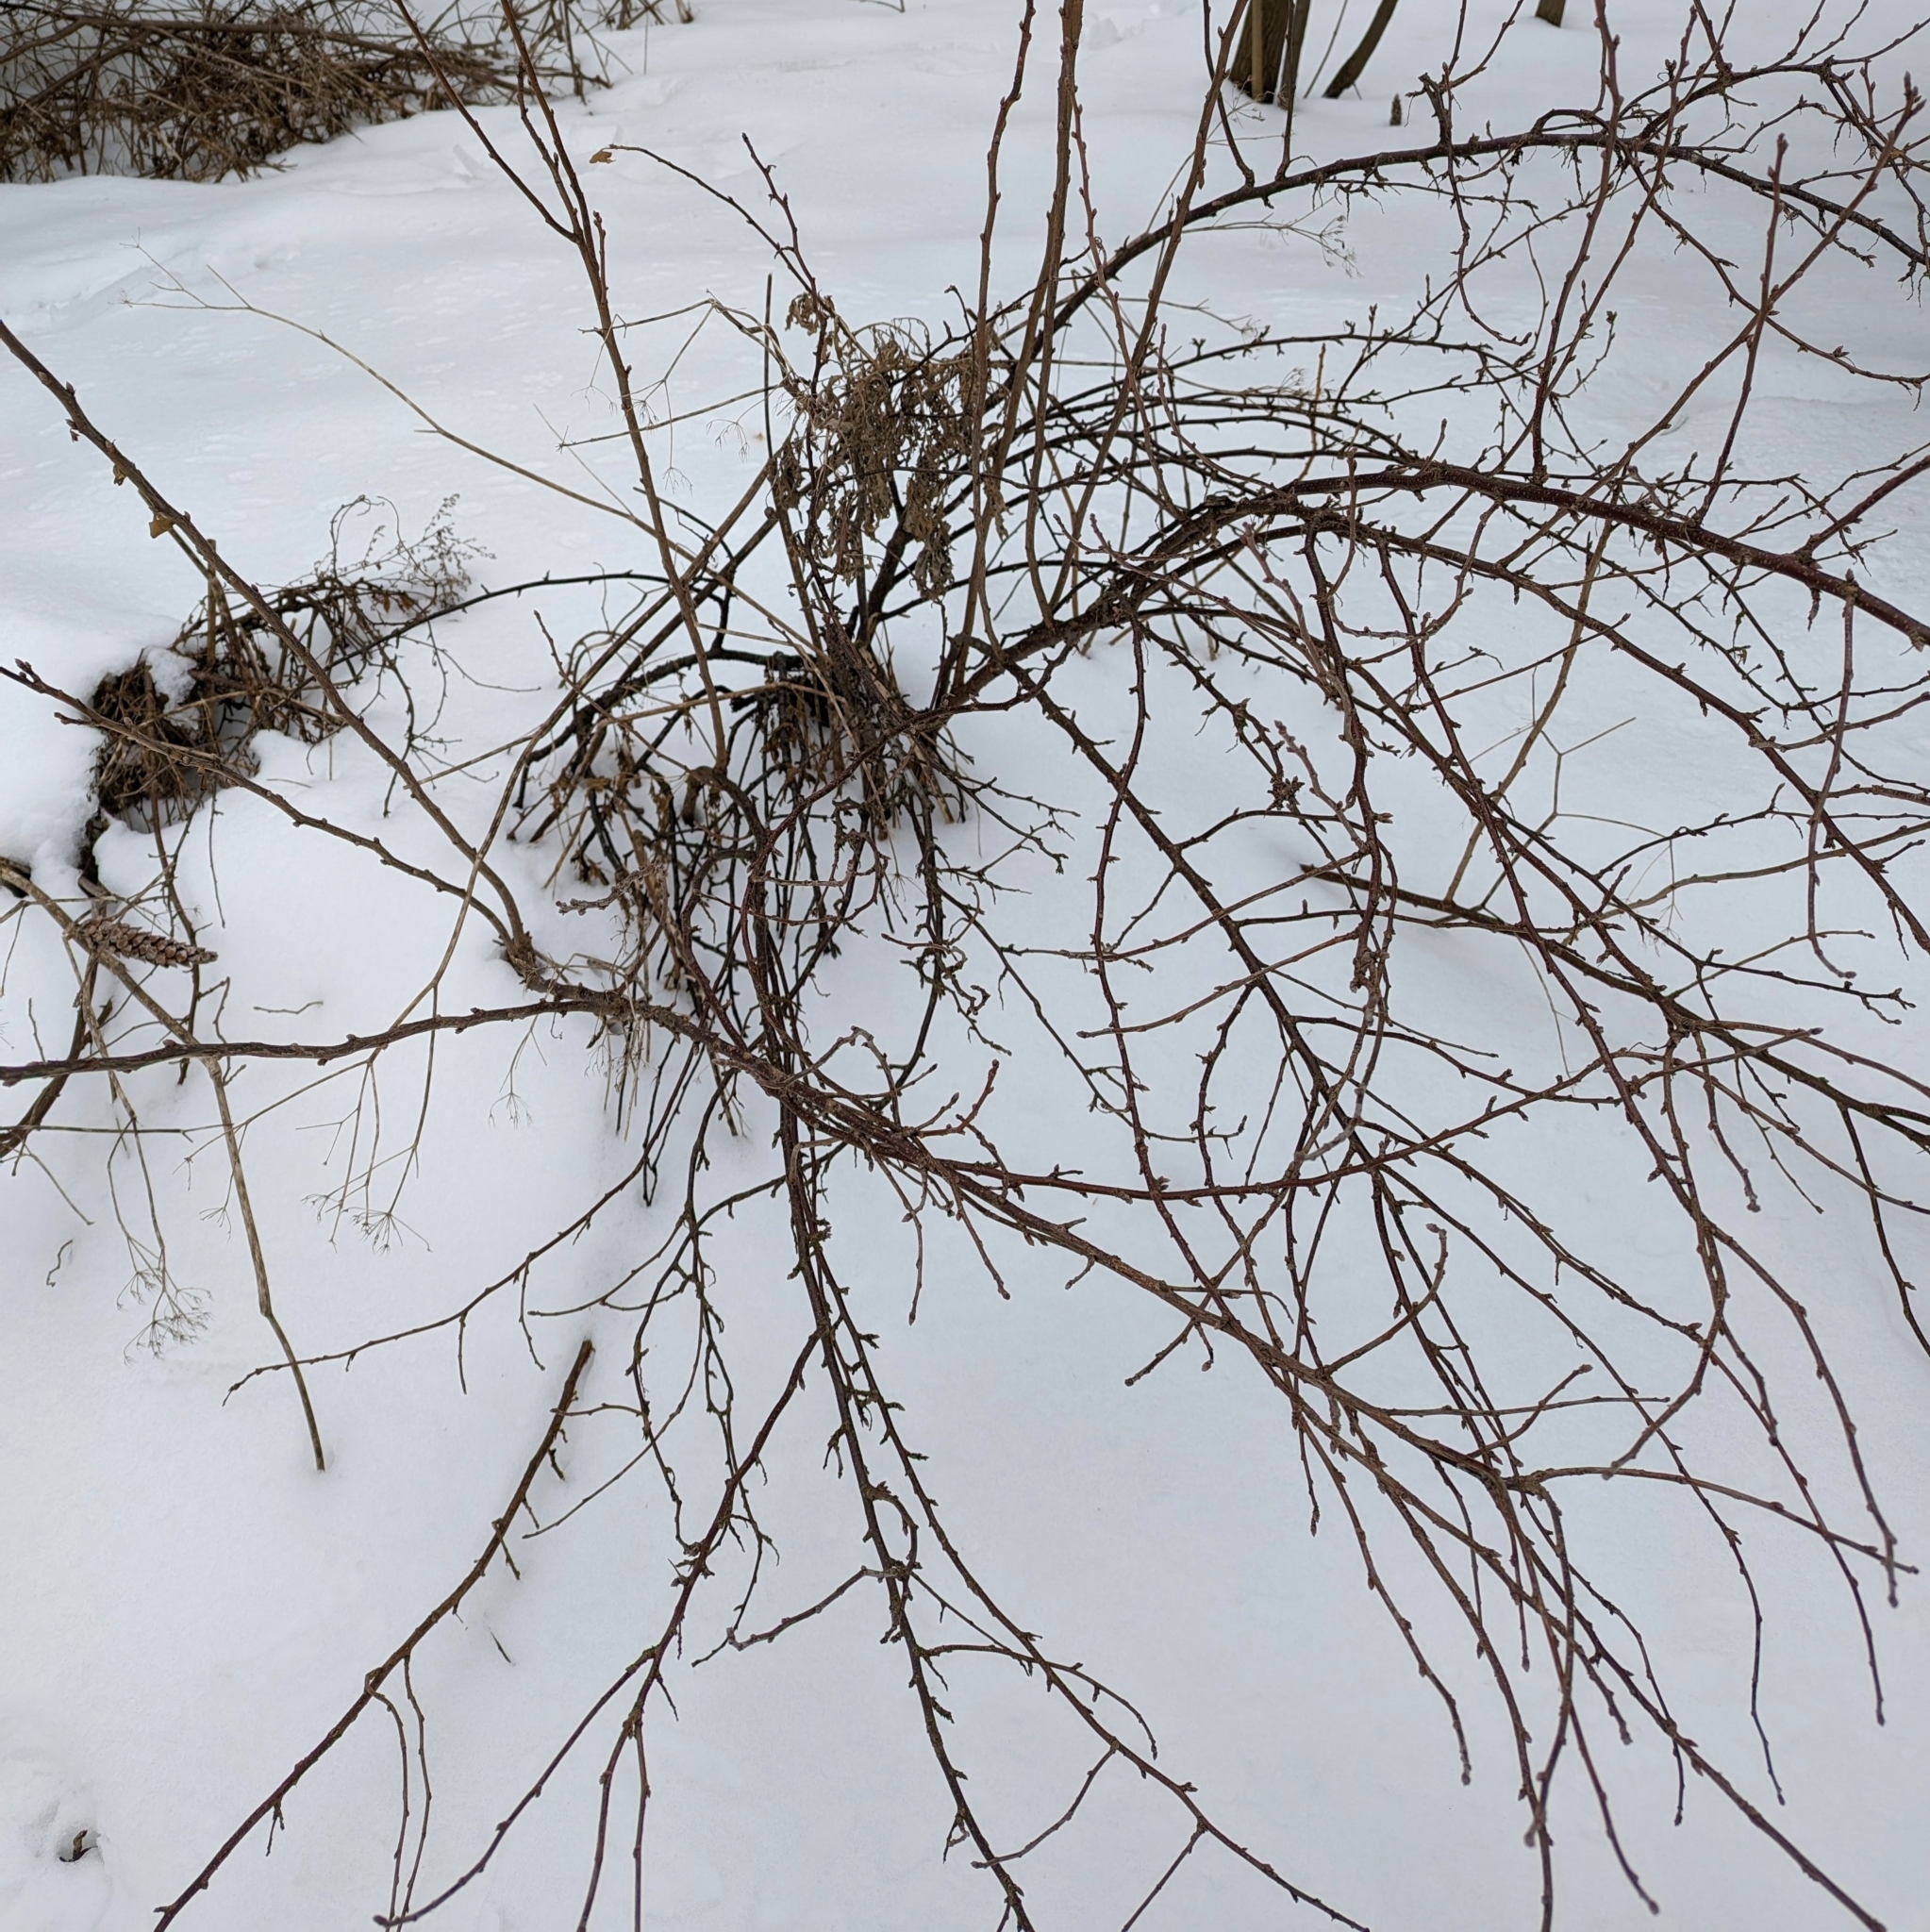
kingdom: Plantae
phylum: Tracheophyta
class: Magnoliopsida
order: Saxifragales
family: Grossulariaceae
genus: Ribes
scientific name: Ribes aureum
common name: Golden currant
